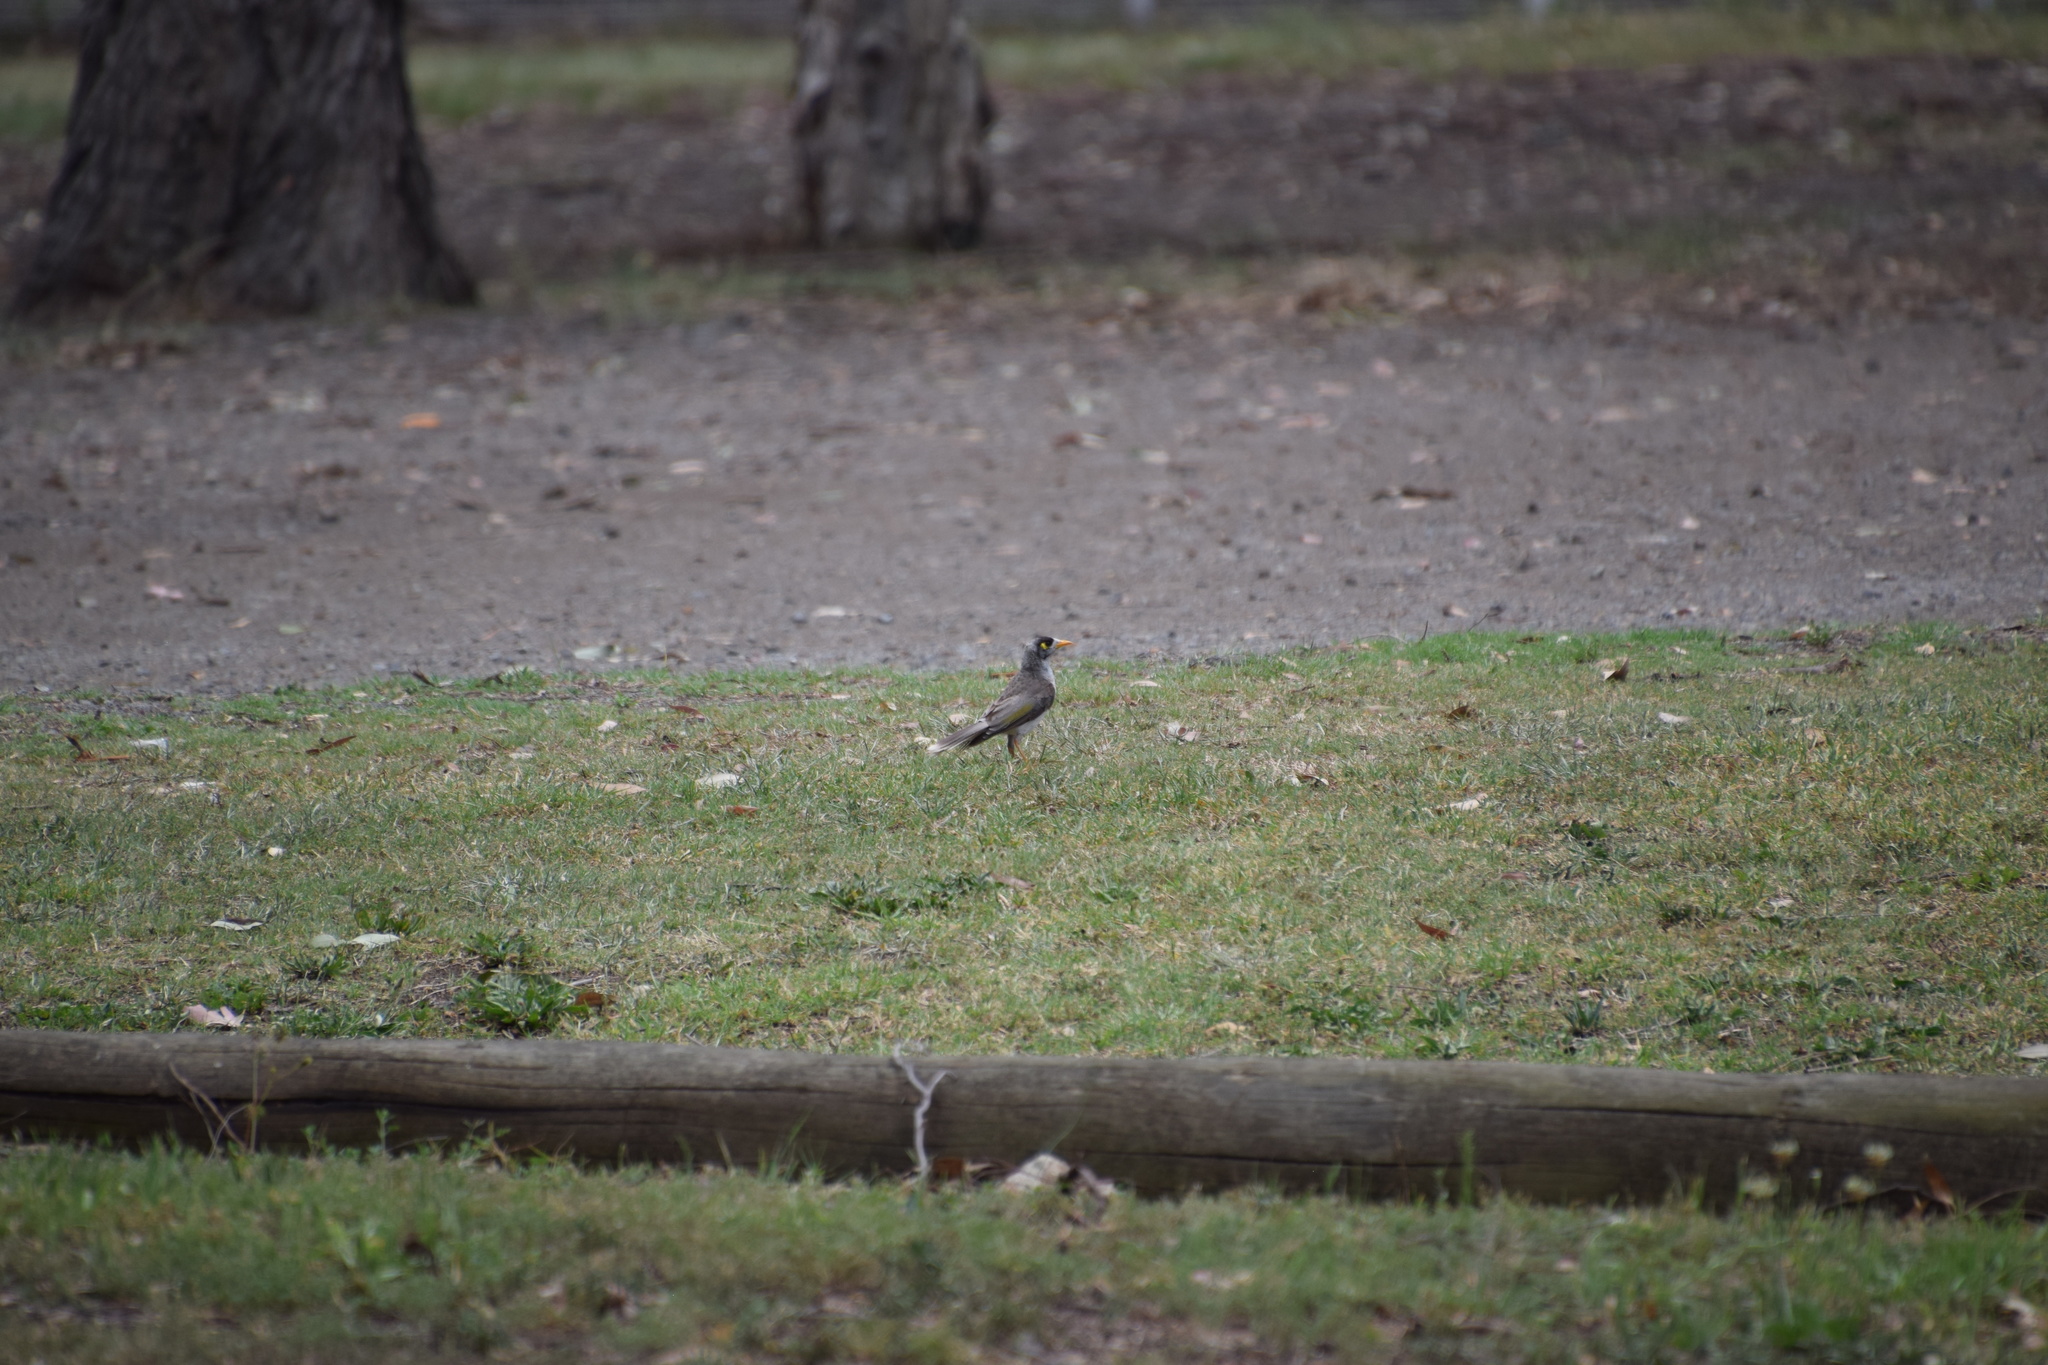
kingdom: Animalia
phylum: Chordata
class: Aves
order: Passeriformes
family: Meliphagidae
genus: Manorina
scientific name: Manorina melanocephala
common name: Noisy miner
